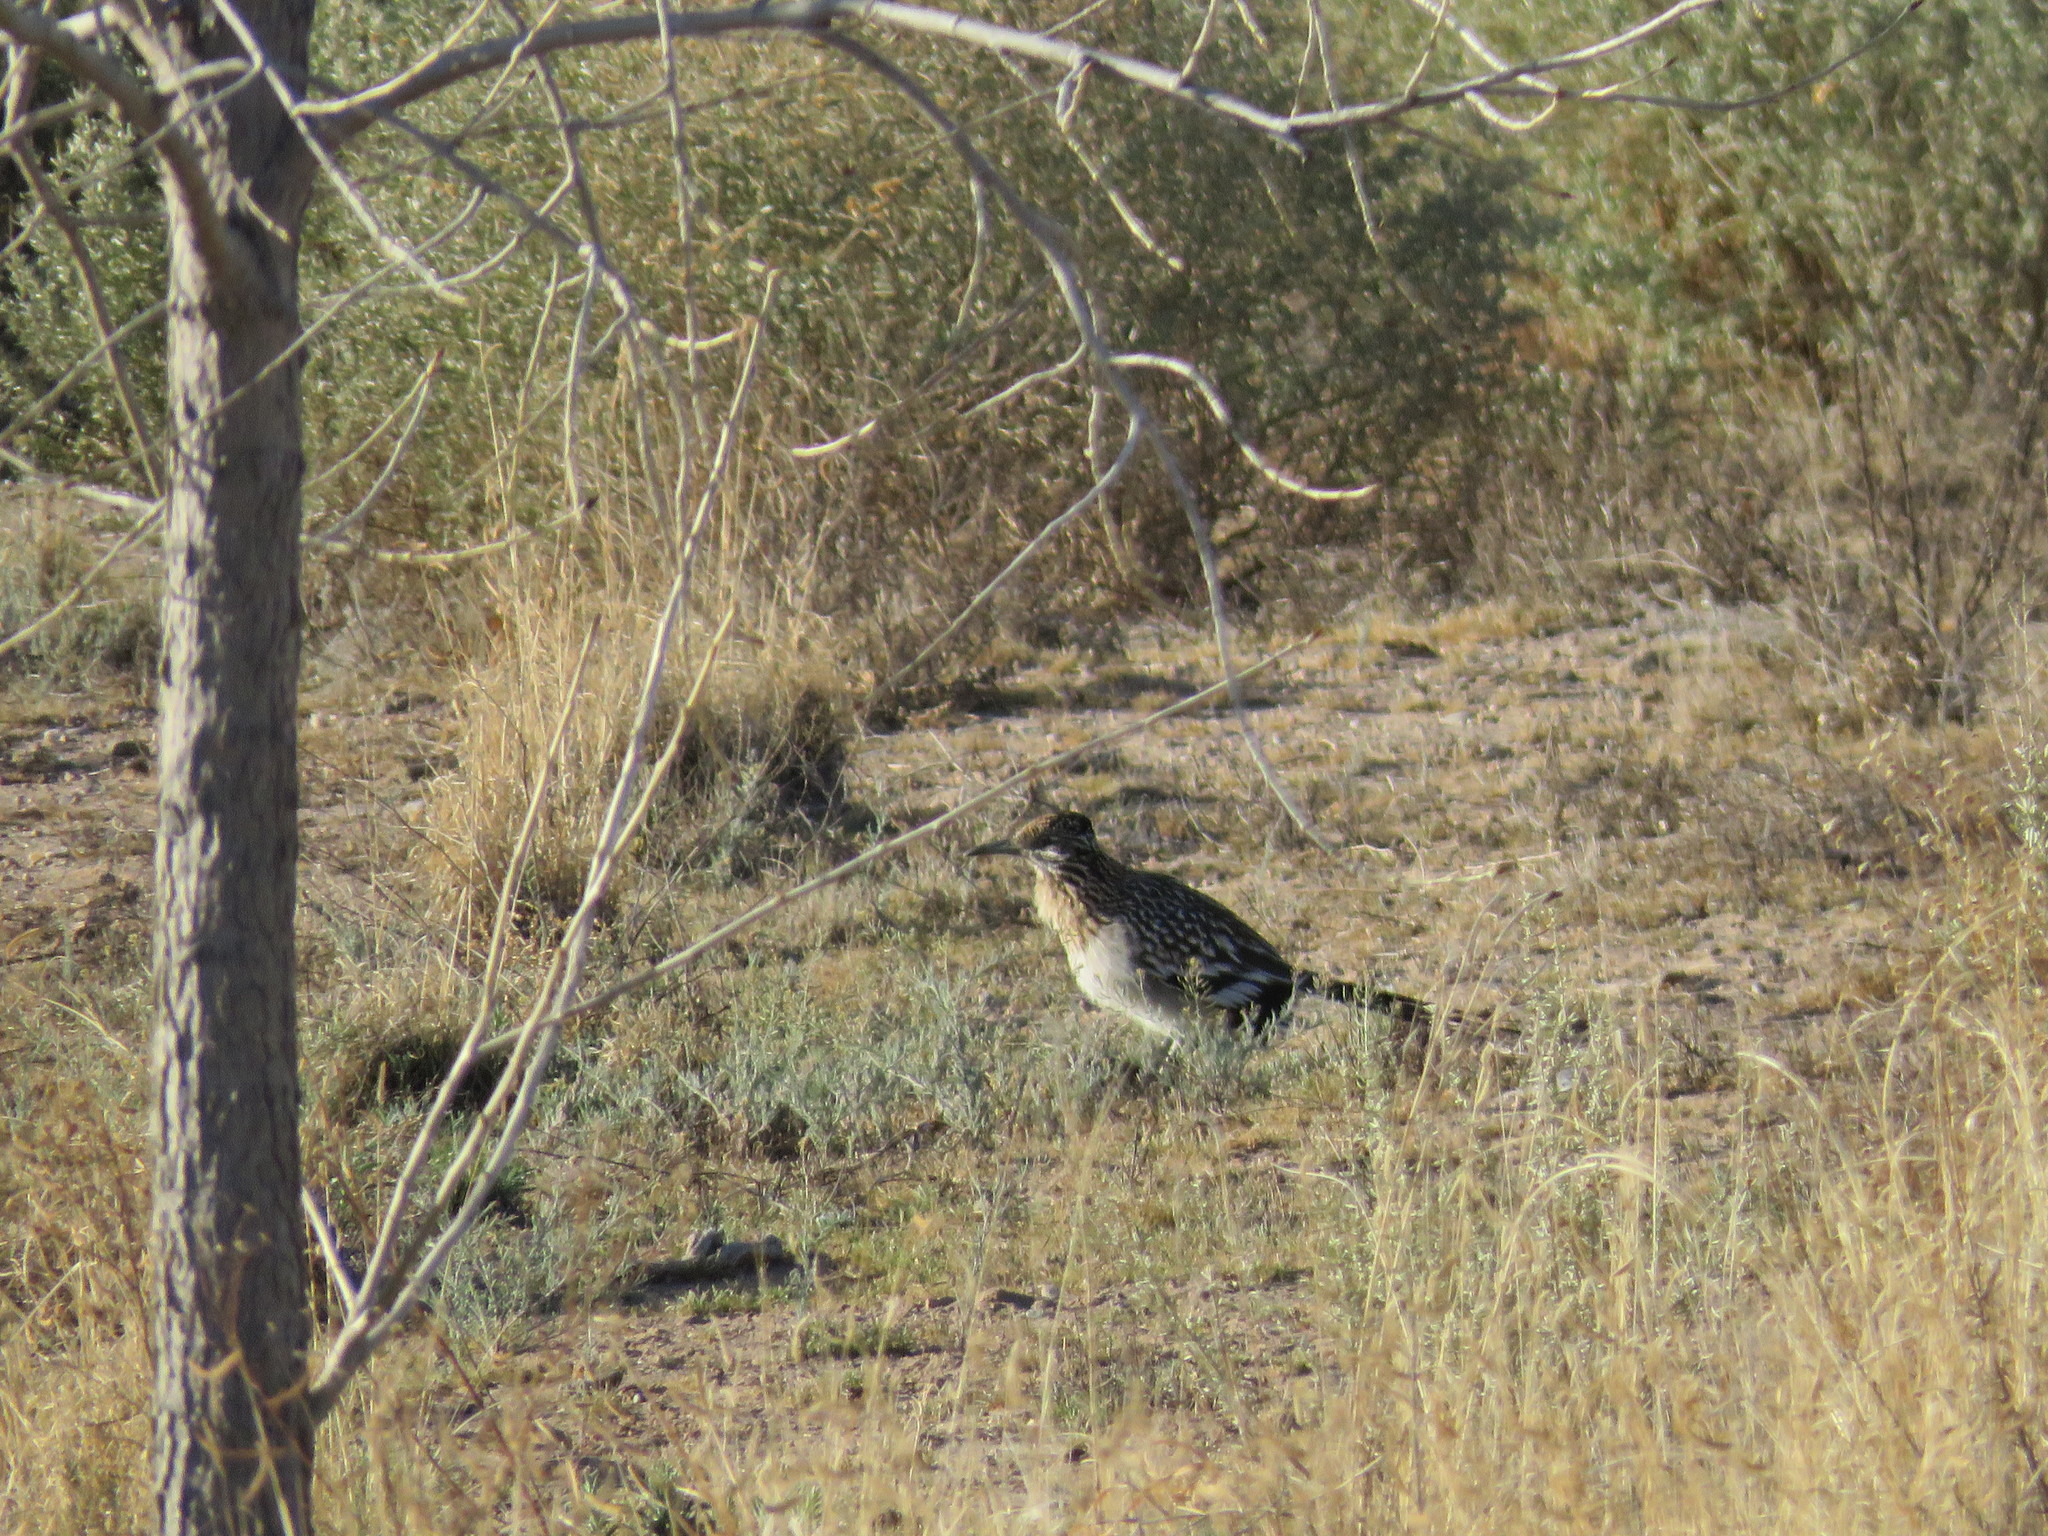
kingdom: Animalia
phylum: Chordata
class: Aves
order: Cuculiformes
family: Cuculidae
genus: Geococcyx
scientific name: Geococcyx californianus
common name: Greater roadrunner
